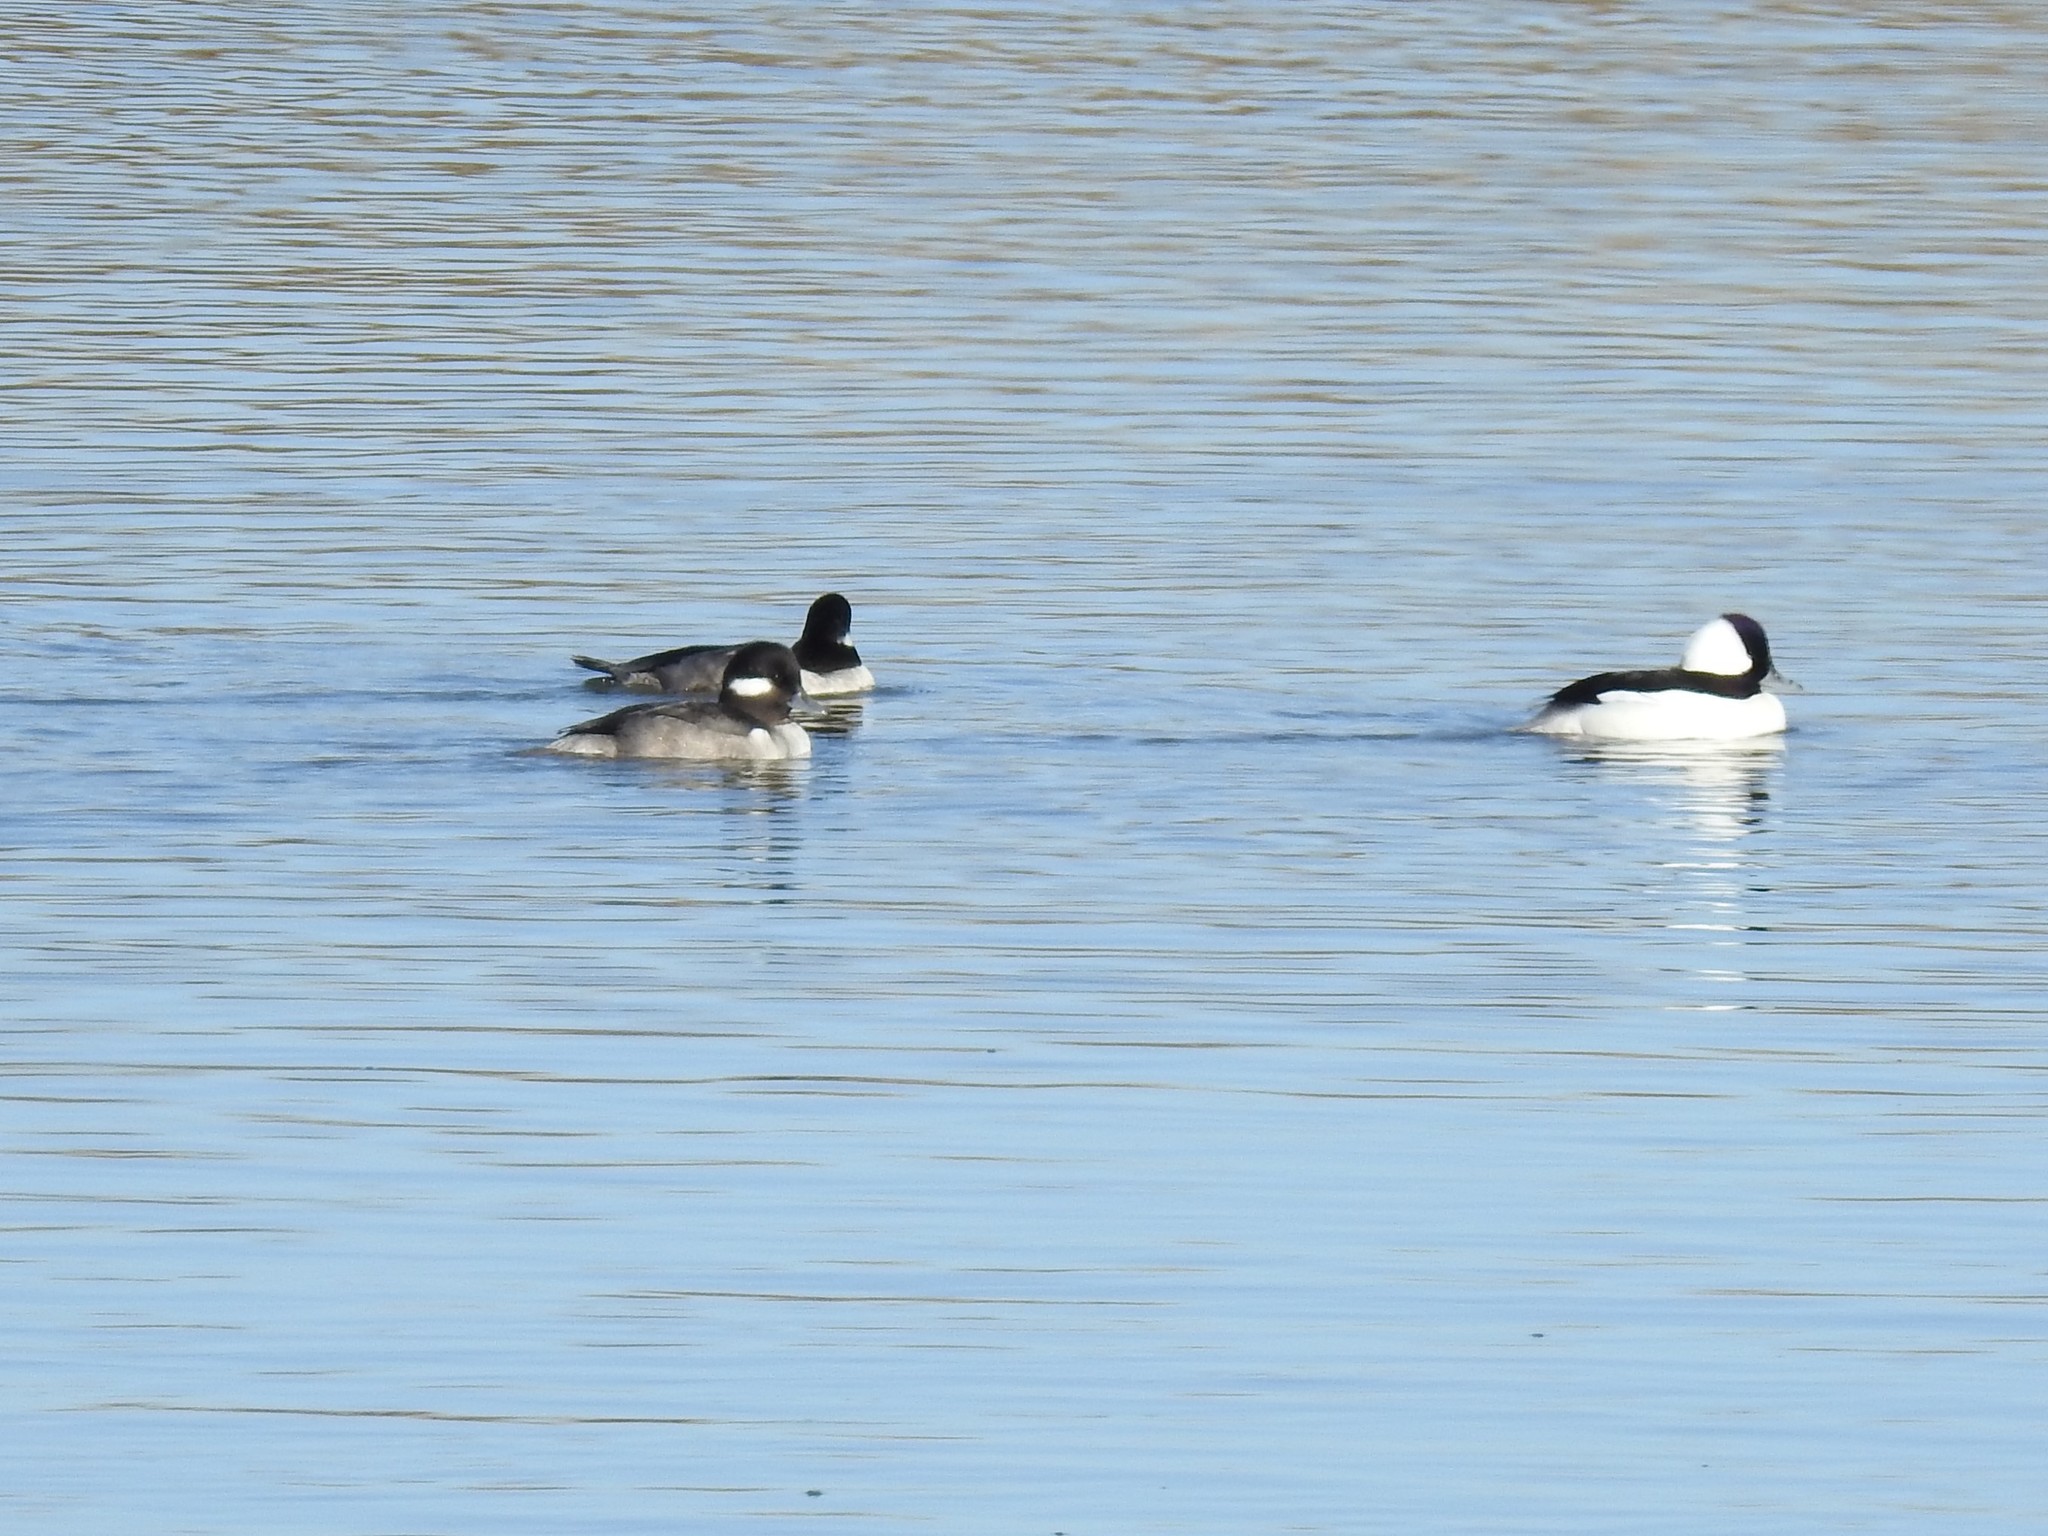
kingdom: Animalia
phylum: Chordata
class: Aves
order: Anseriformes
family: Anatidae
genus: Bucephala
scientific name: Bucephala albeola
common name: Bufflehead
